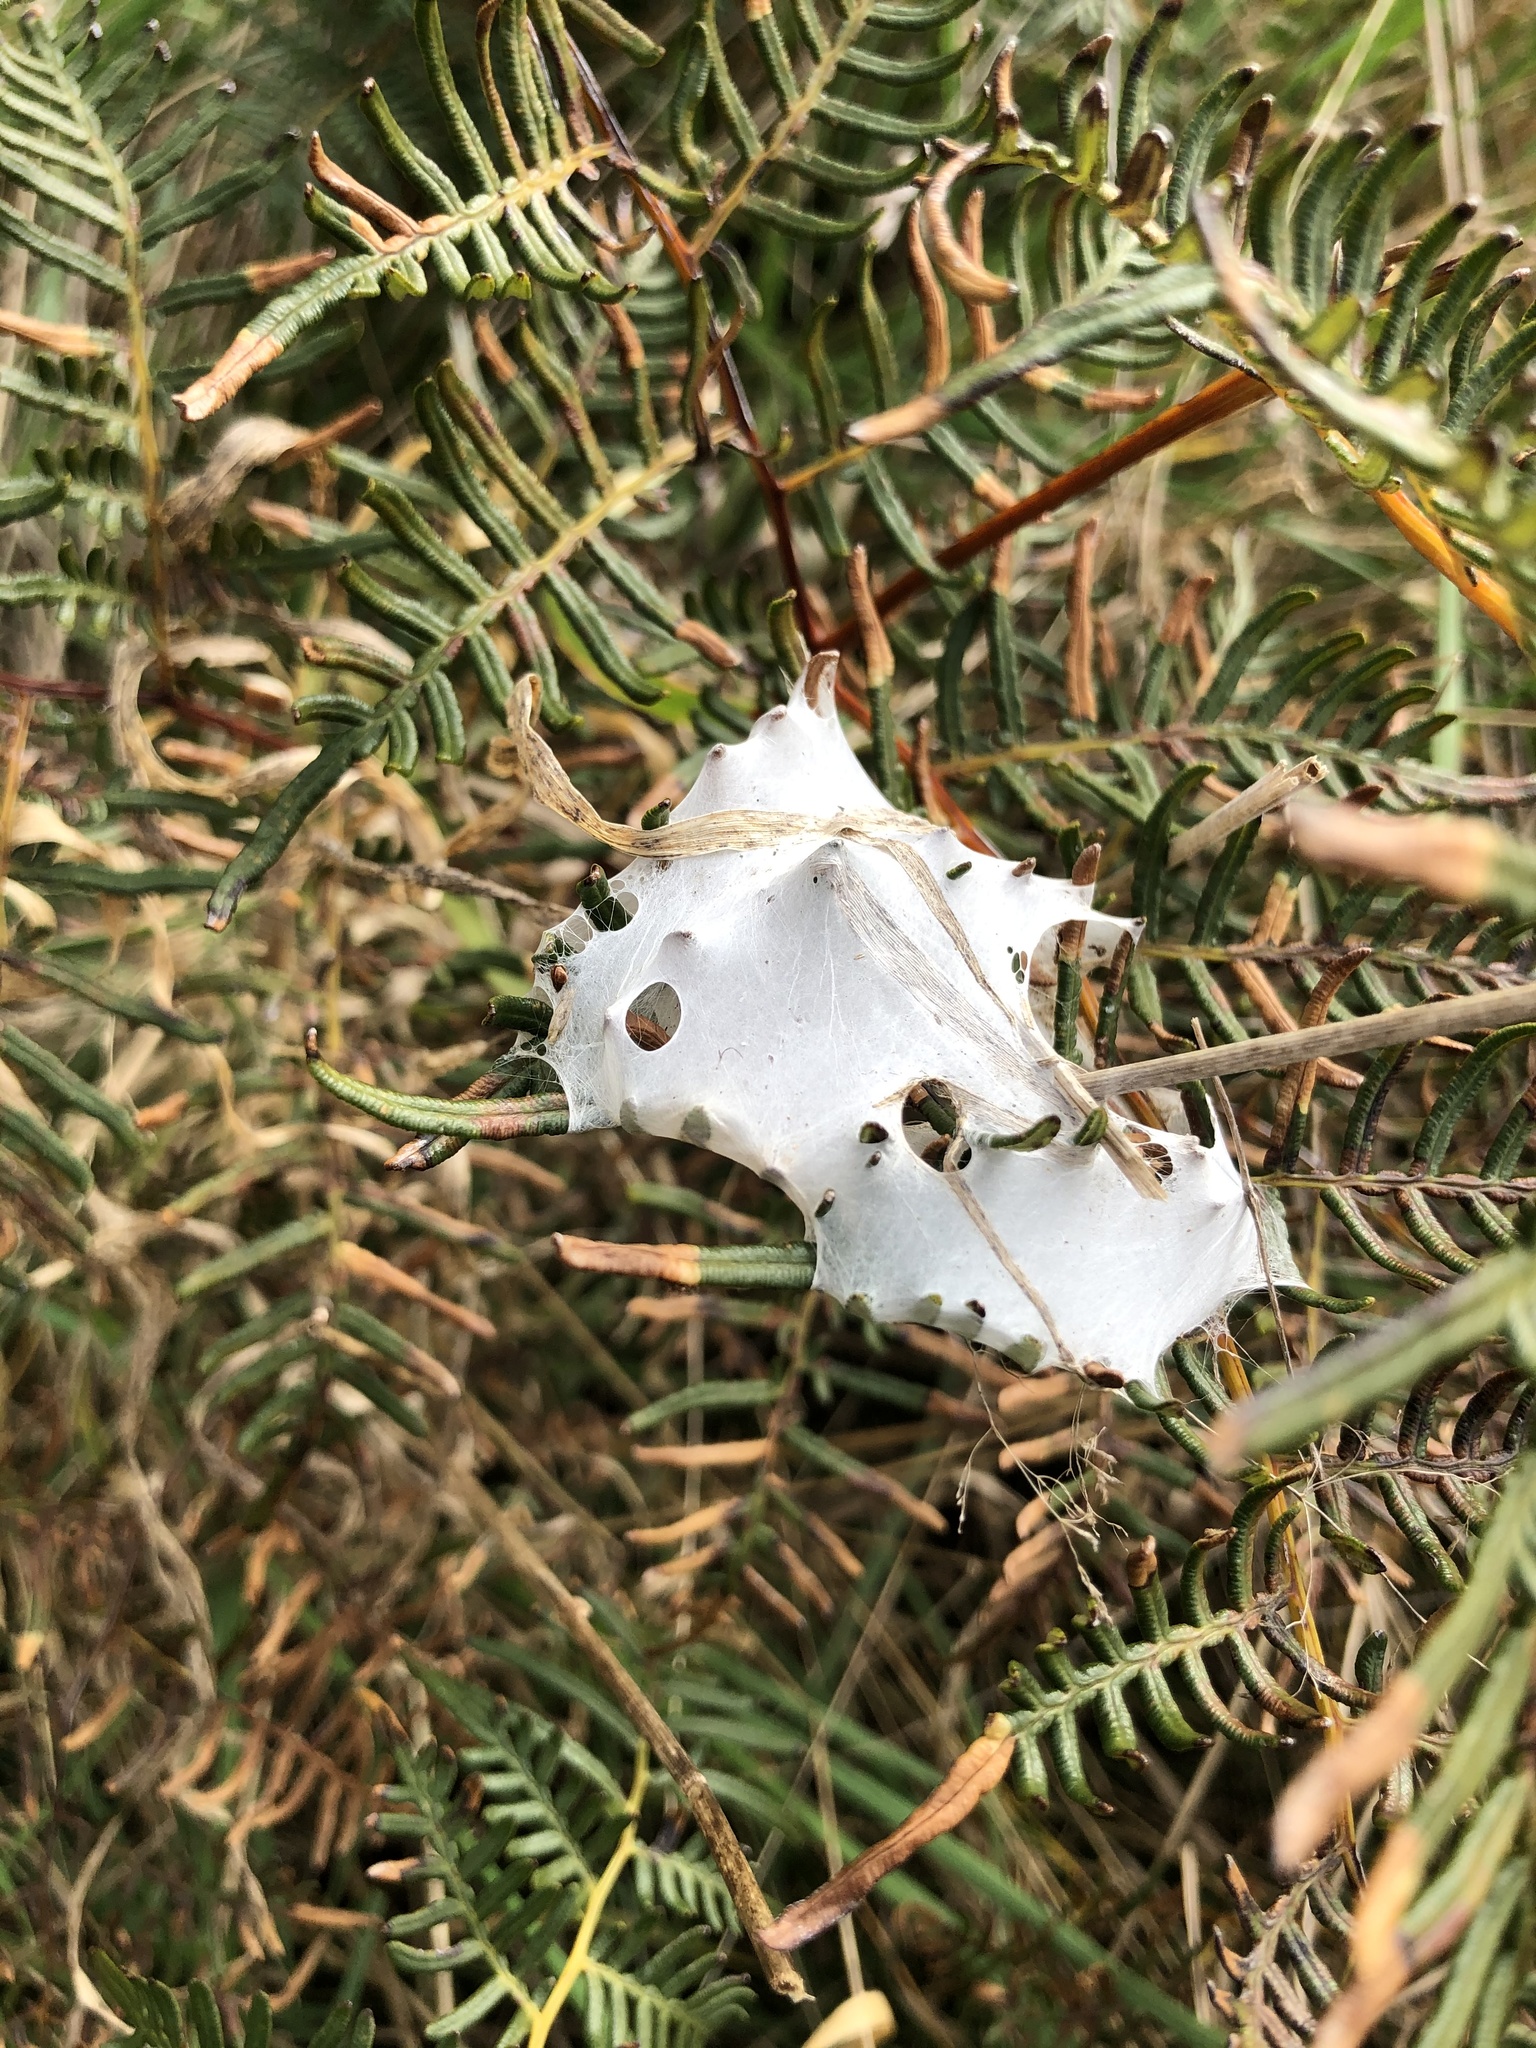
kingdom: Animalia
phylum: Arthropoda
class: Arachnida
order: Araneae
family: Pisauridae
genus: Dolomedes
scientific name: Dolomedes minor
